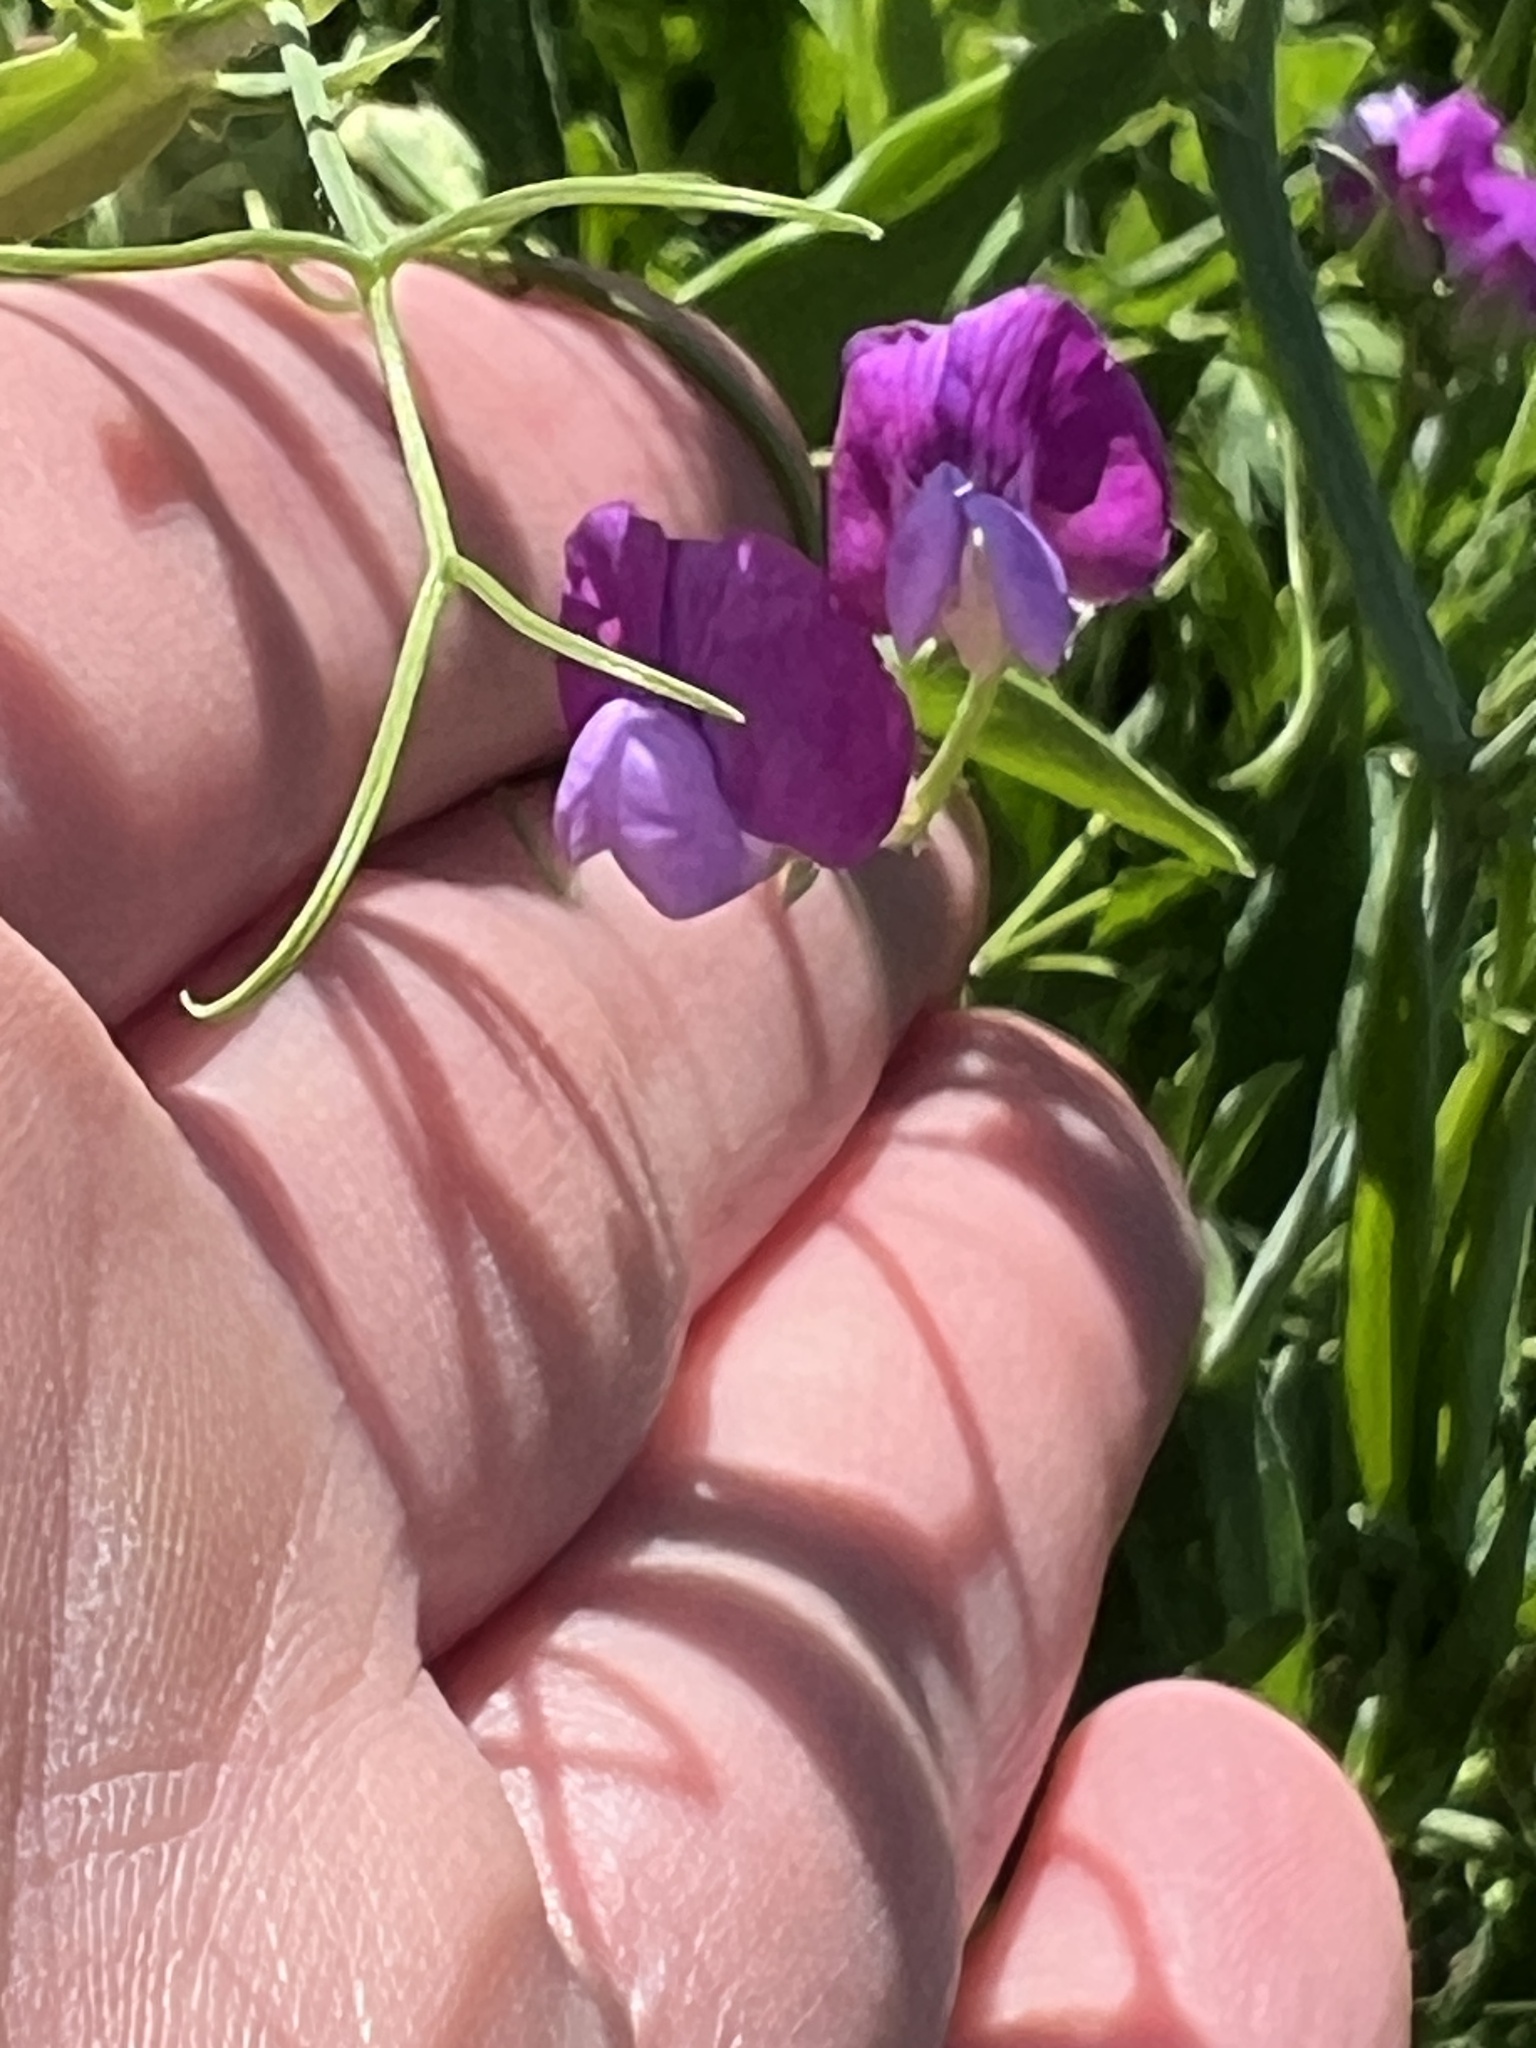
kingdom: Plantae
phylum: Tracheophyta
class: Magnoliopsida
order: Fabales
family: Fabaceae
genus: Lathyrus
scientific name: Lathyrus hirsutus
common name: Hairy vetchling
